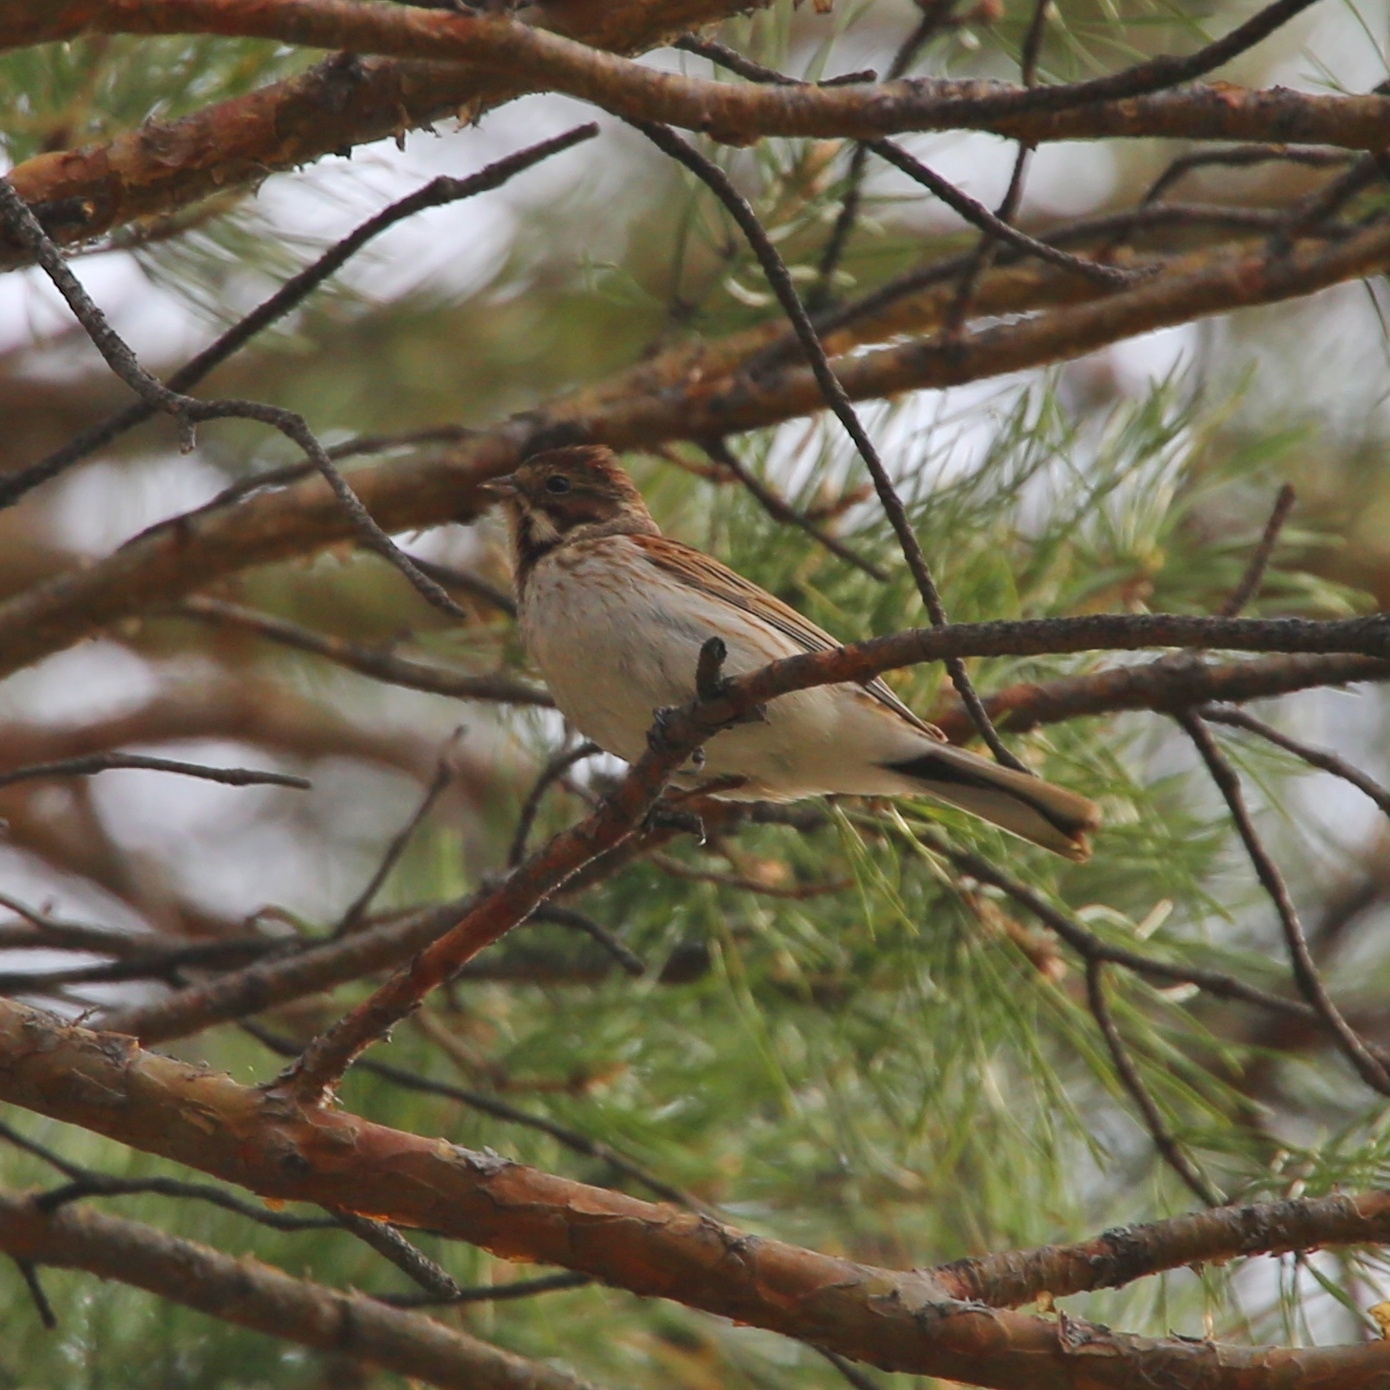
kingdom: Animalia
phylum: Chordata
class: Aves
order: Passeriformes
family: Emberizidae
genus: Emberiza
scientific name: Emberiza schoeniclus
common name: Reed bunting
